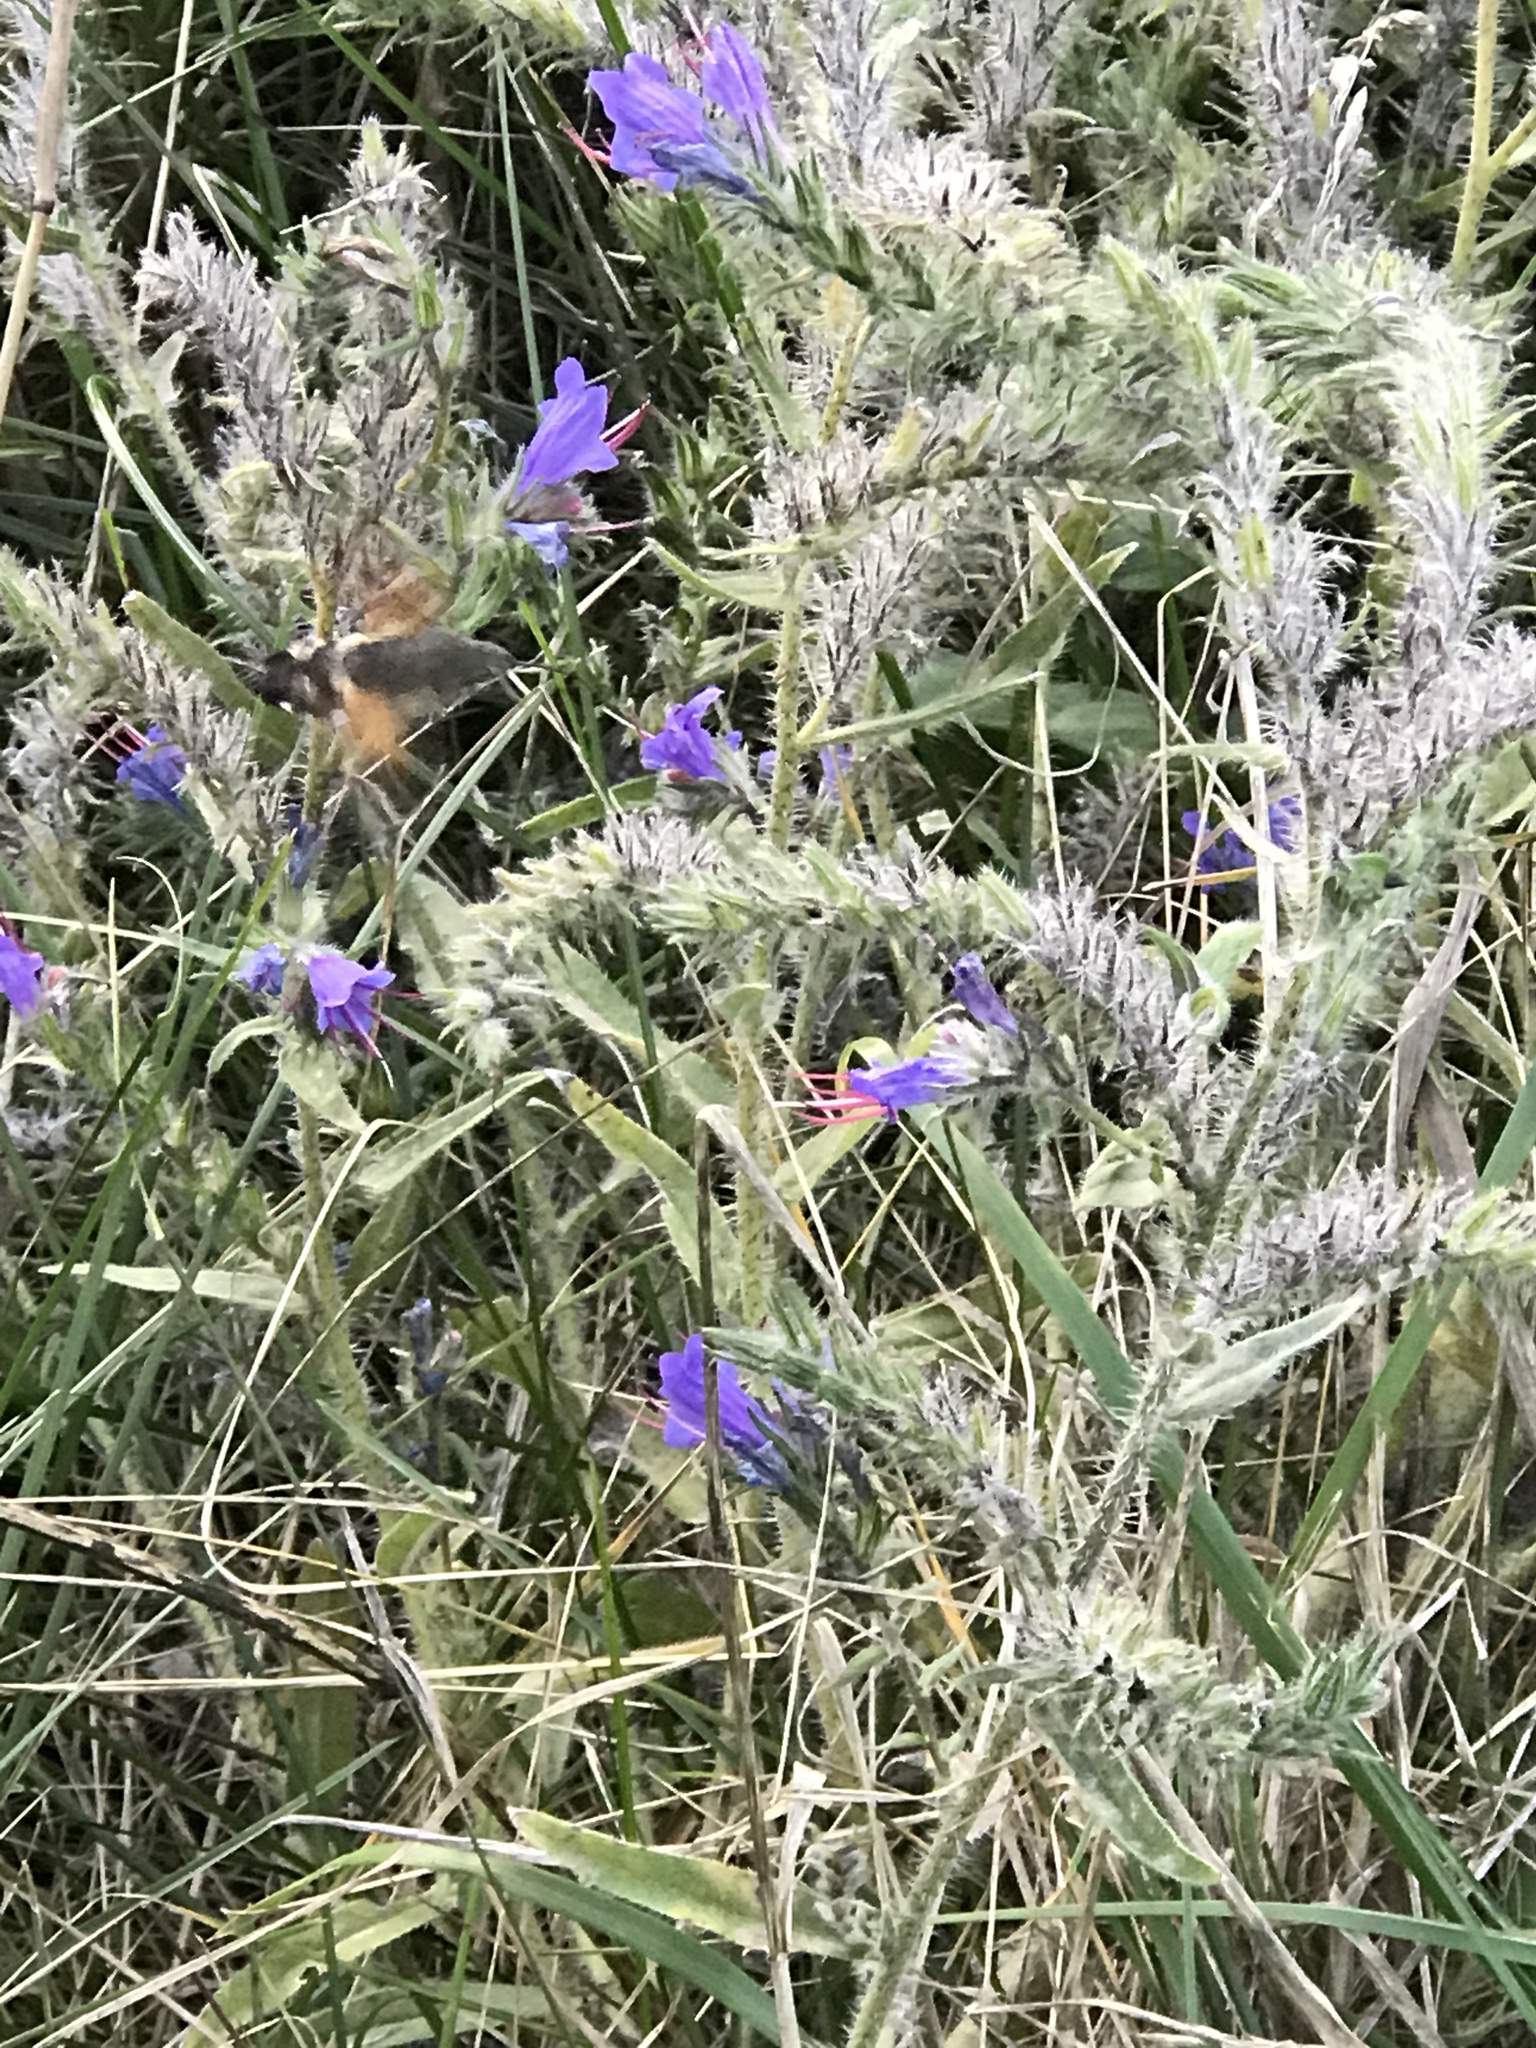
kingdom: Animalia
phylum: Arthropoda
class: Insecta
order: Lepidoptera
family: Sphingidae
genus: Macroglossum
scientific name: Macroglossum stellatarum
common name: Humming-bird hawk-moth
